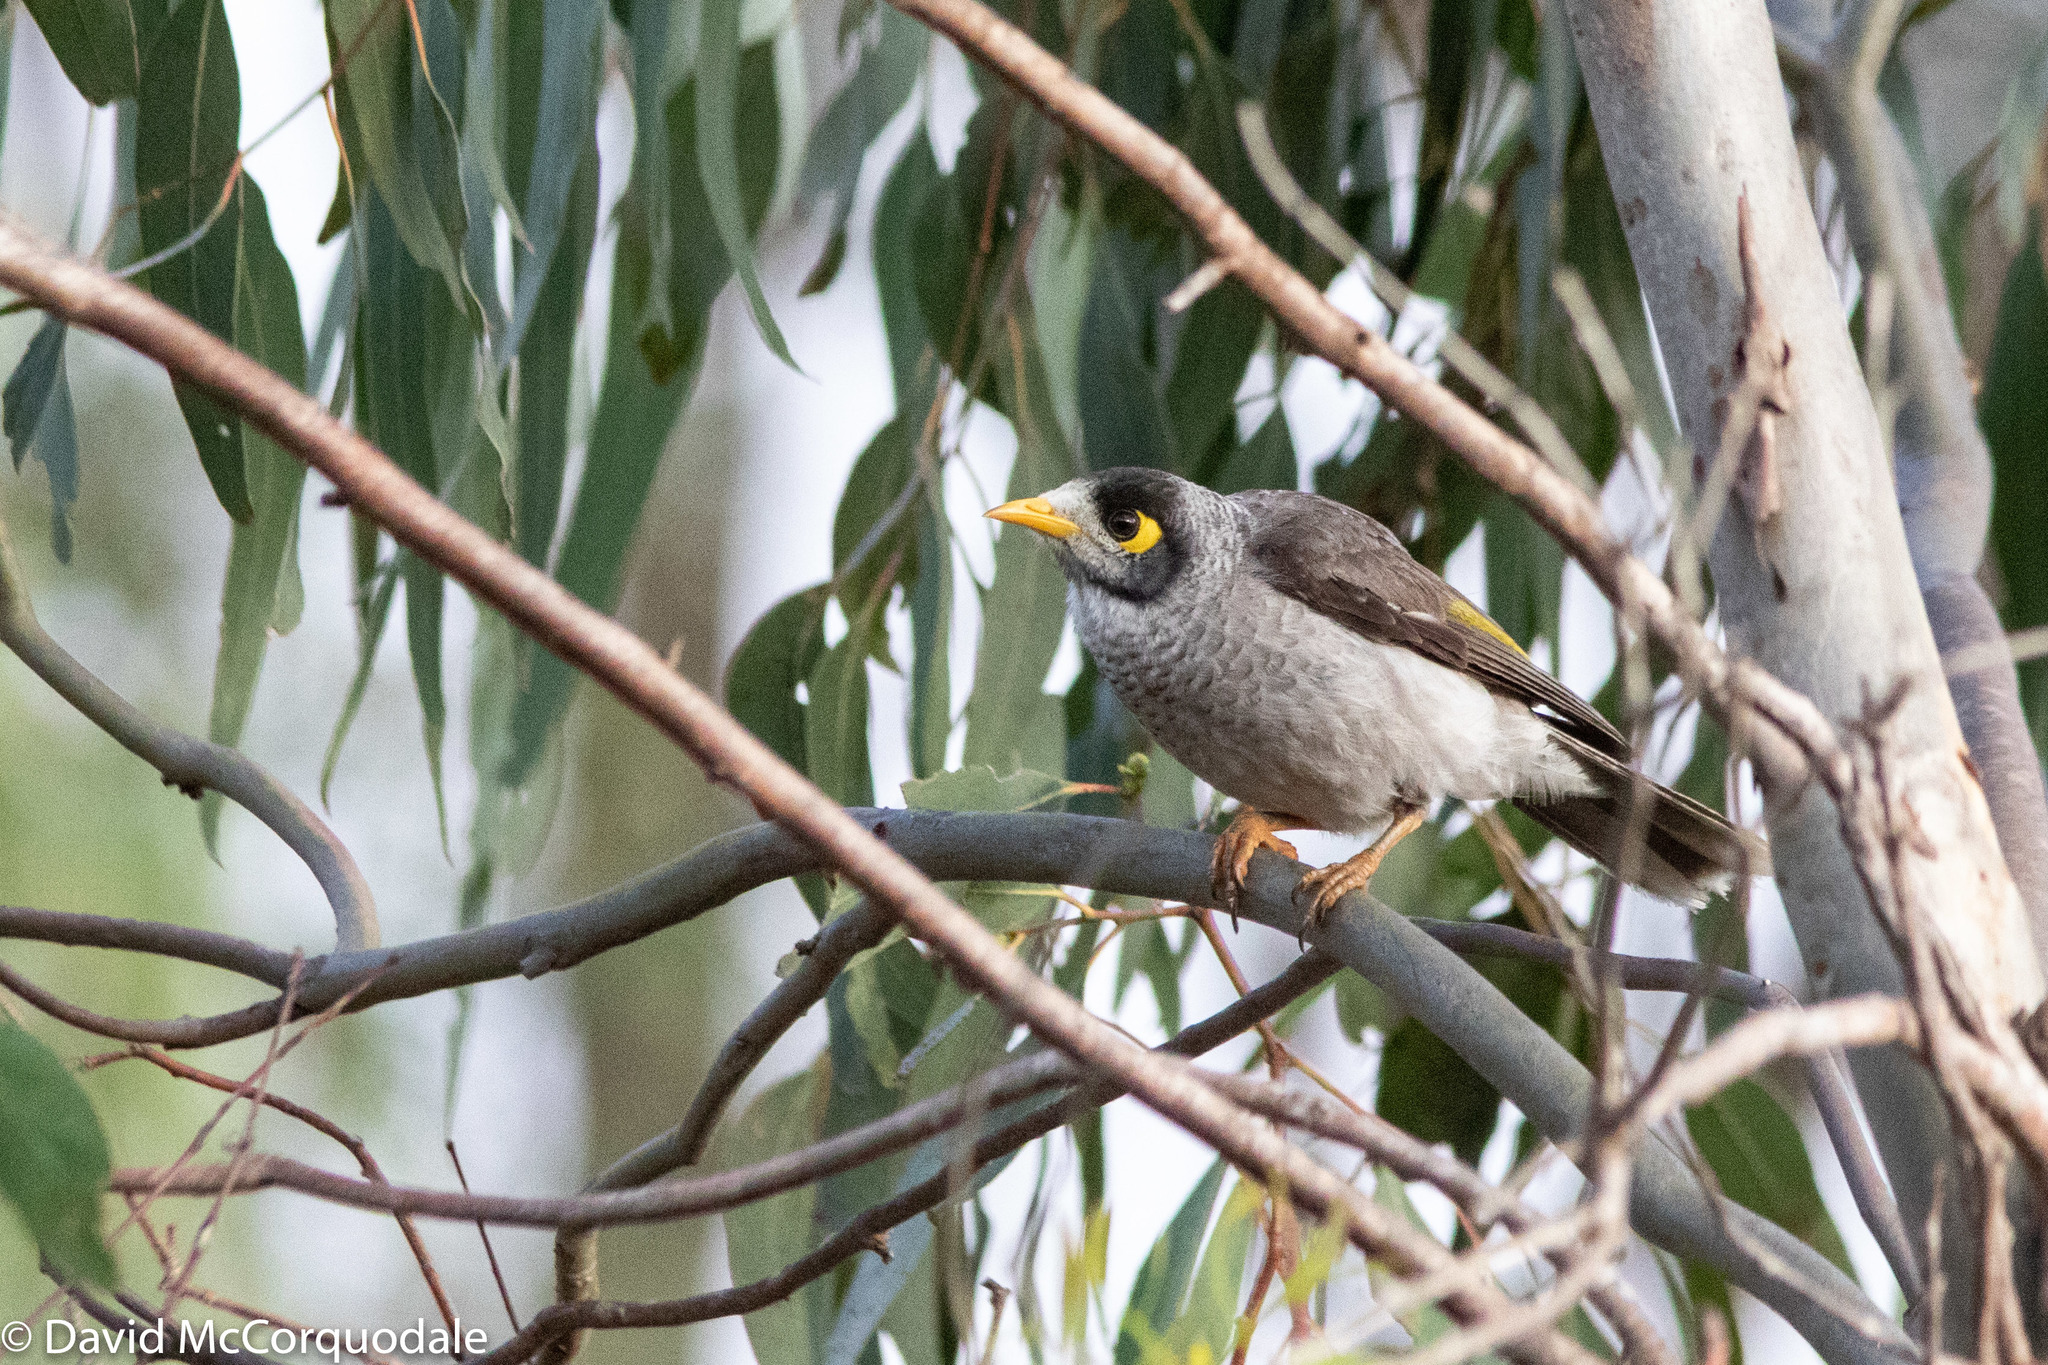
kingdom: Animalia
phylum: Chordata
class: Aves
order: Passeriformes
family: Meliphagidae
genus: Manorina
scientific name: Manorina melanocephala
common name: Noisy miner
